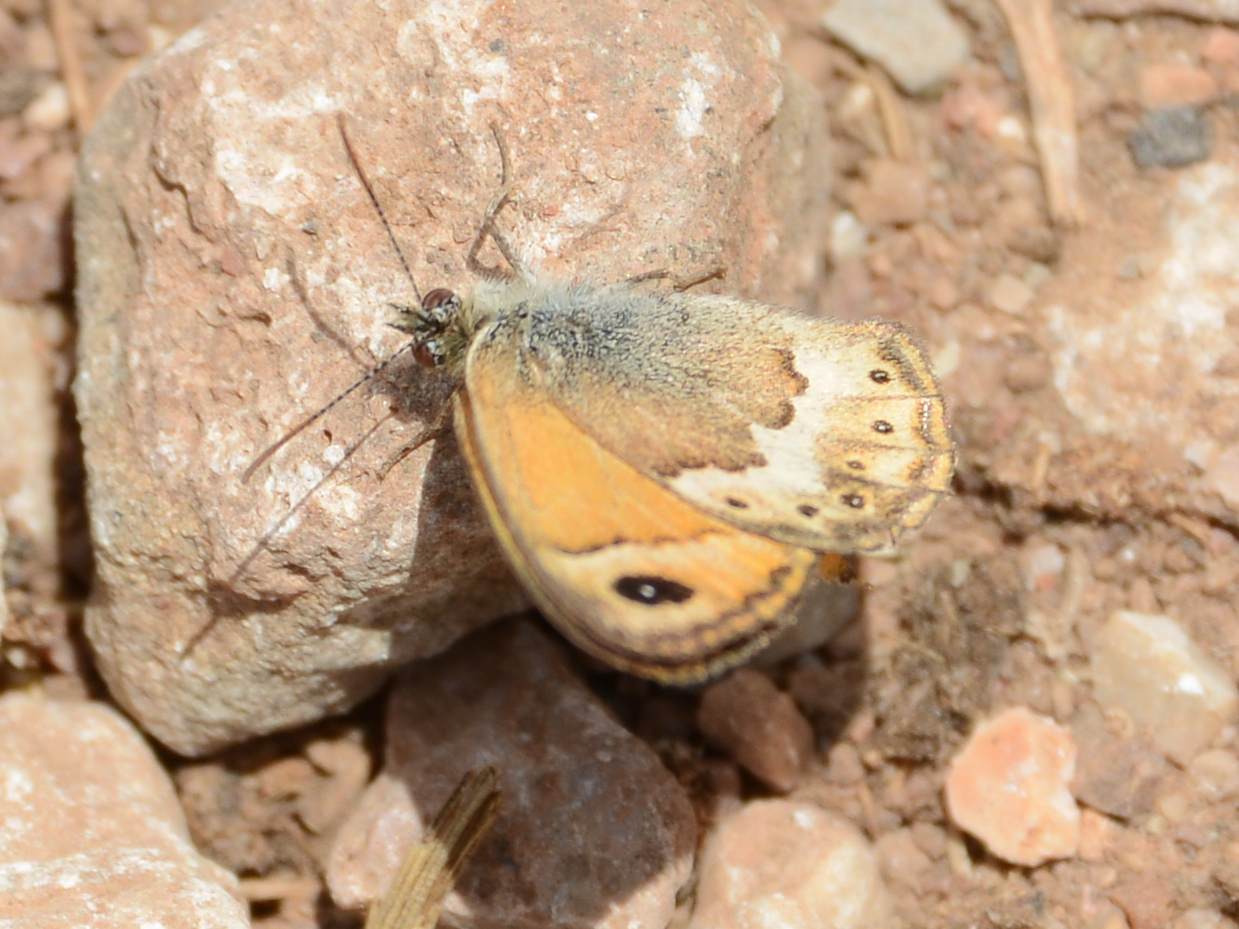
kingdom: Animalia
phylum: Arthropoda
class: Insecta
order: Lepidoptera
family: Nymphalidae
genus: Coenonympha
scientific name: Coenonympha thyrsis
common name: Cretan small heath
